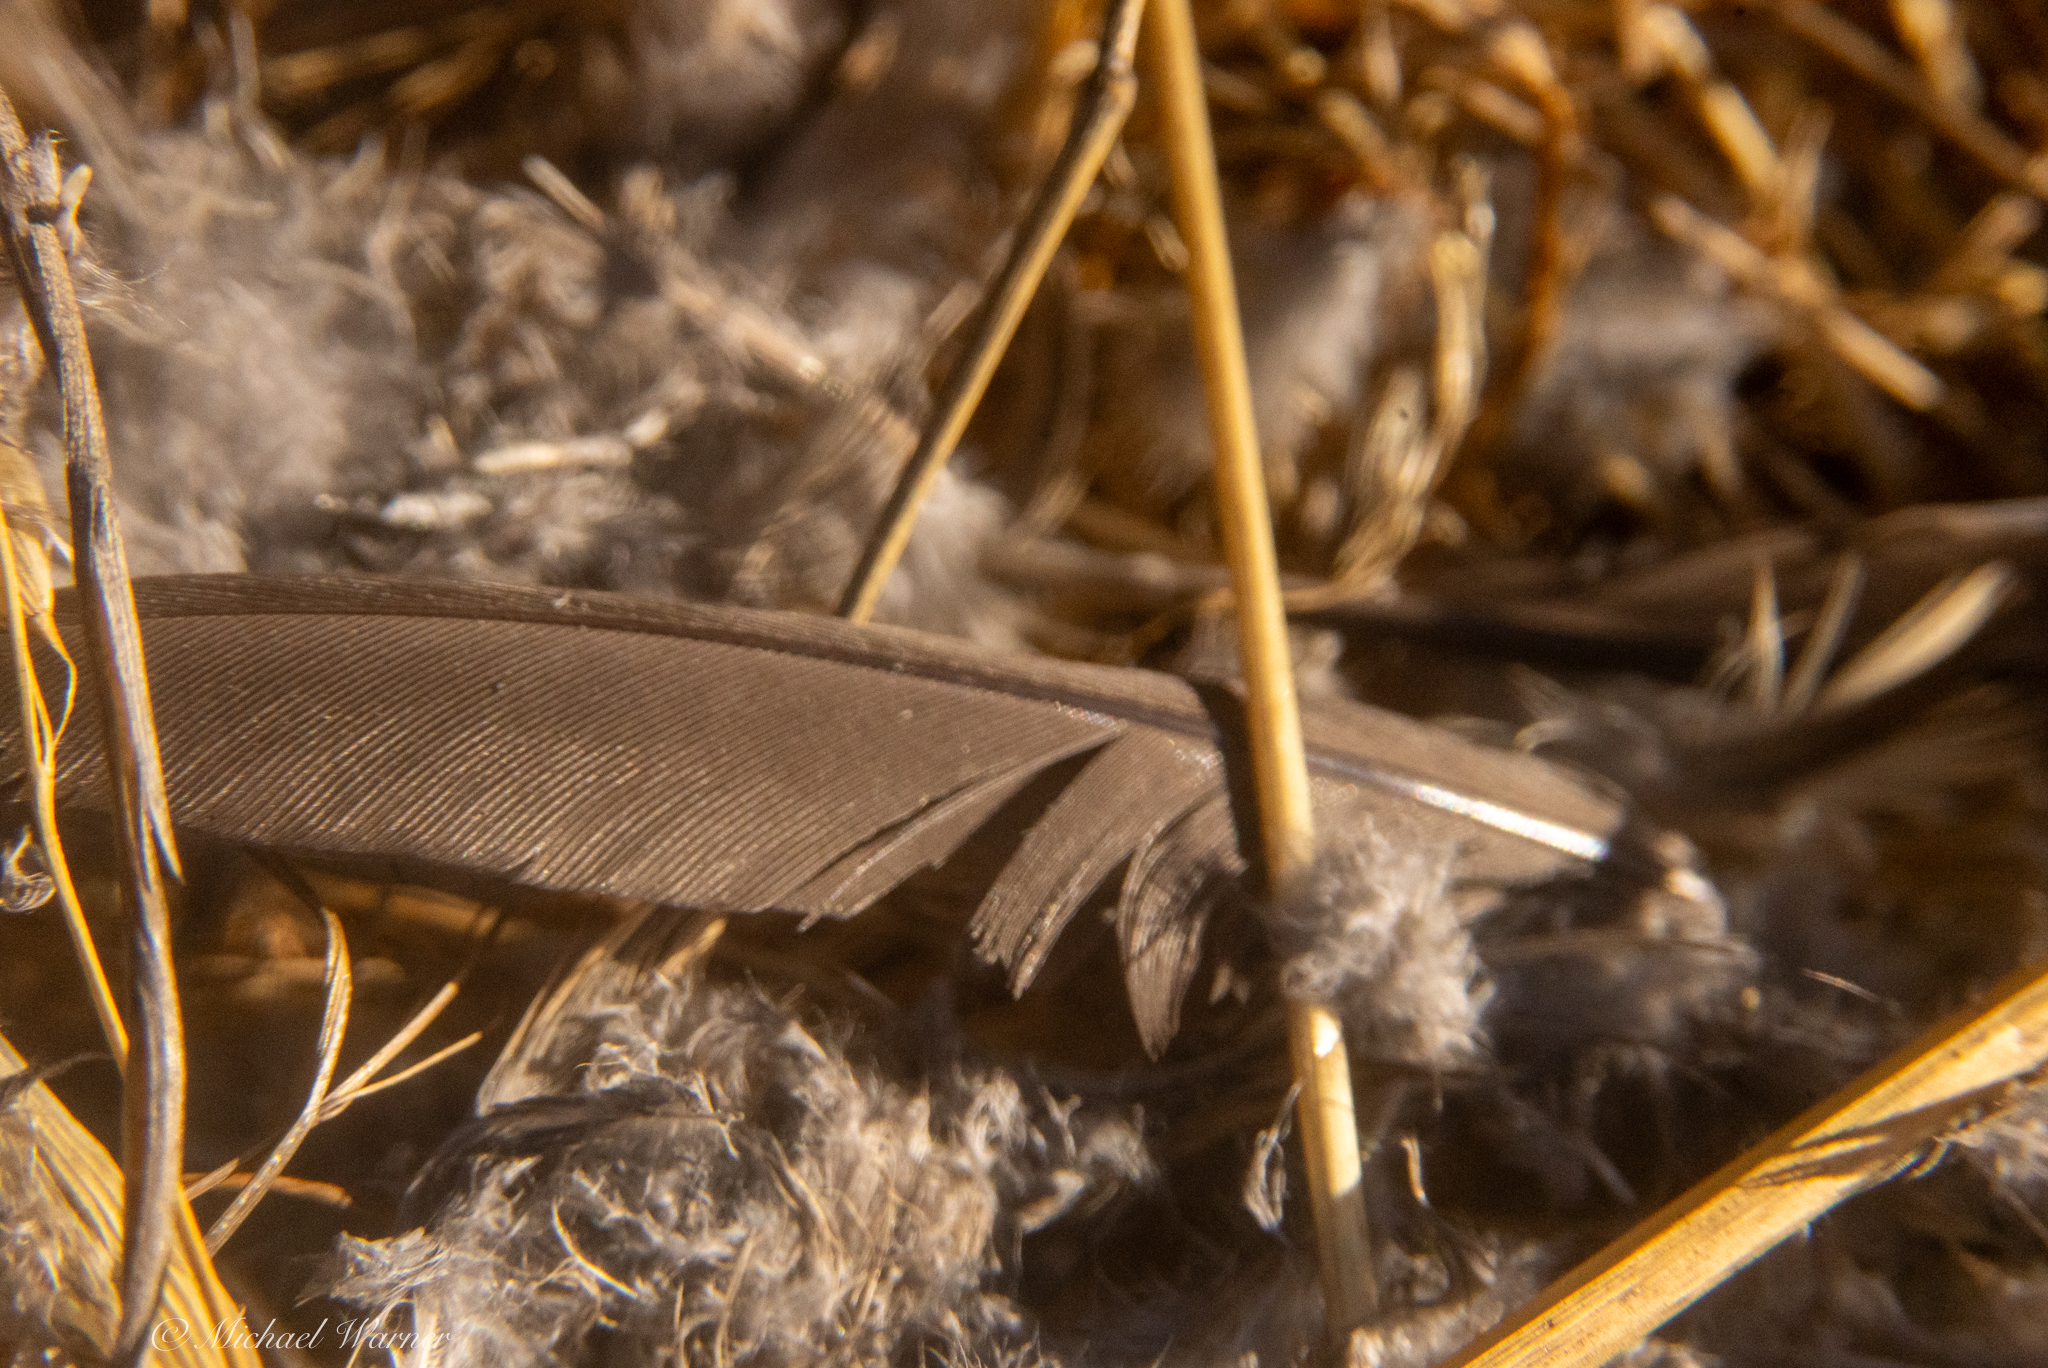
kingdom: Animalia
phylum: Chordata
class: Aves
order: Galliformes
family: Odontophoridae
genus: Callipepla
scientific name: Callipepla californica
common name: California quail
